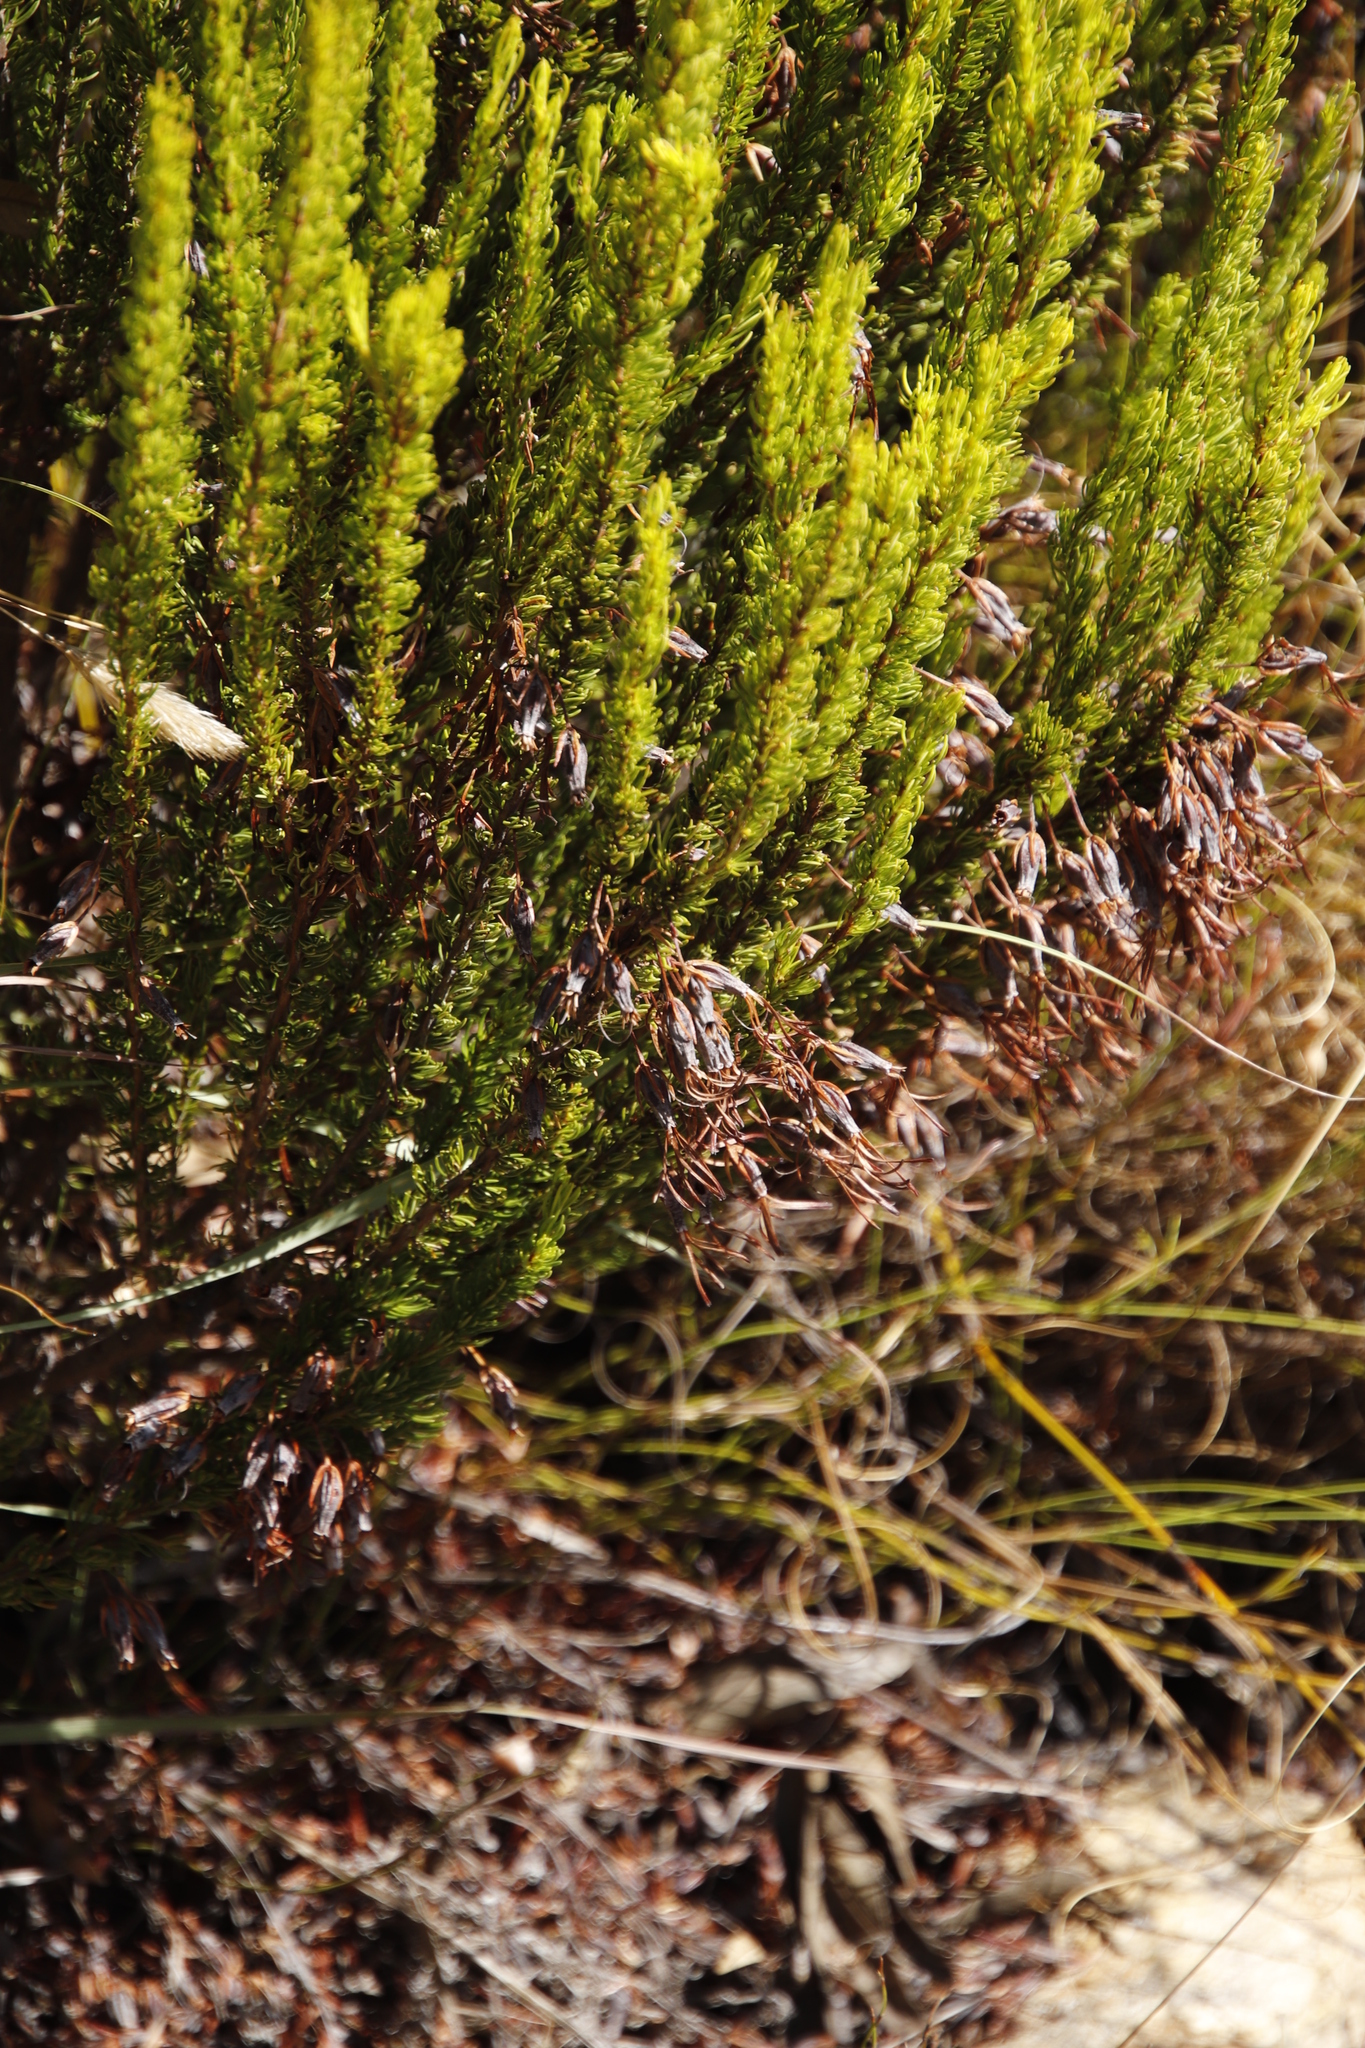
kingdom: Plantae
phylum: Tracheophyta
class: Magnoliopsida
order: Ericales
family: Ericaceae
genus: Erica
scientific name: Erica plukenetii
